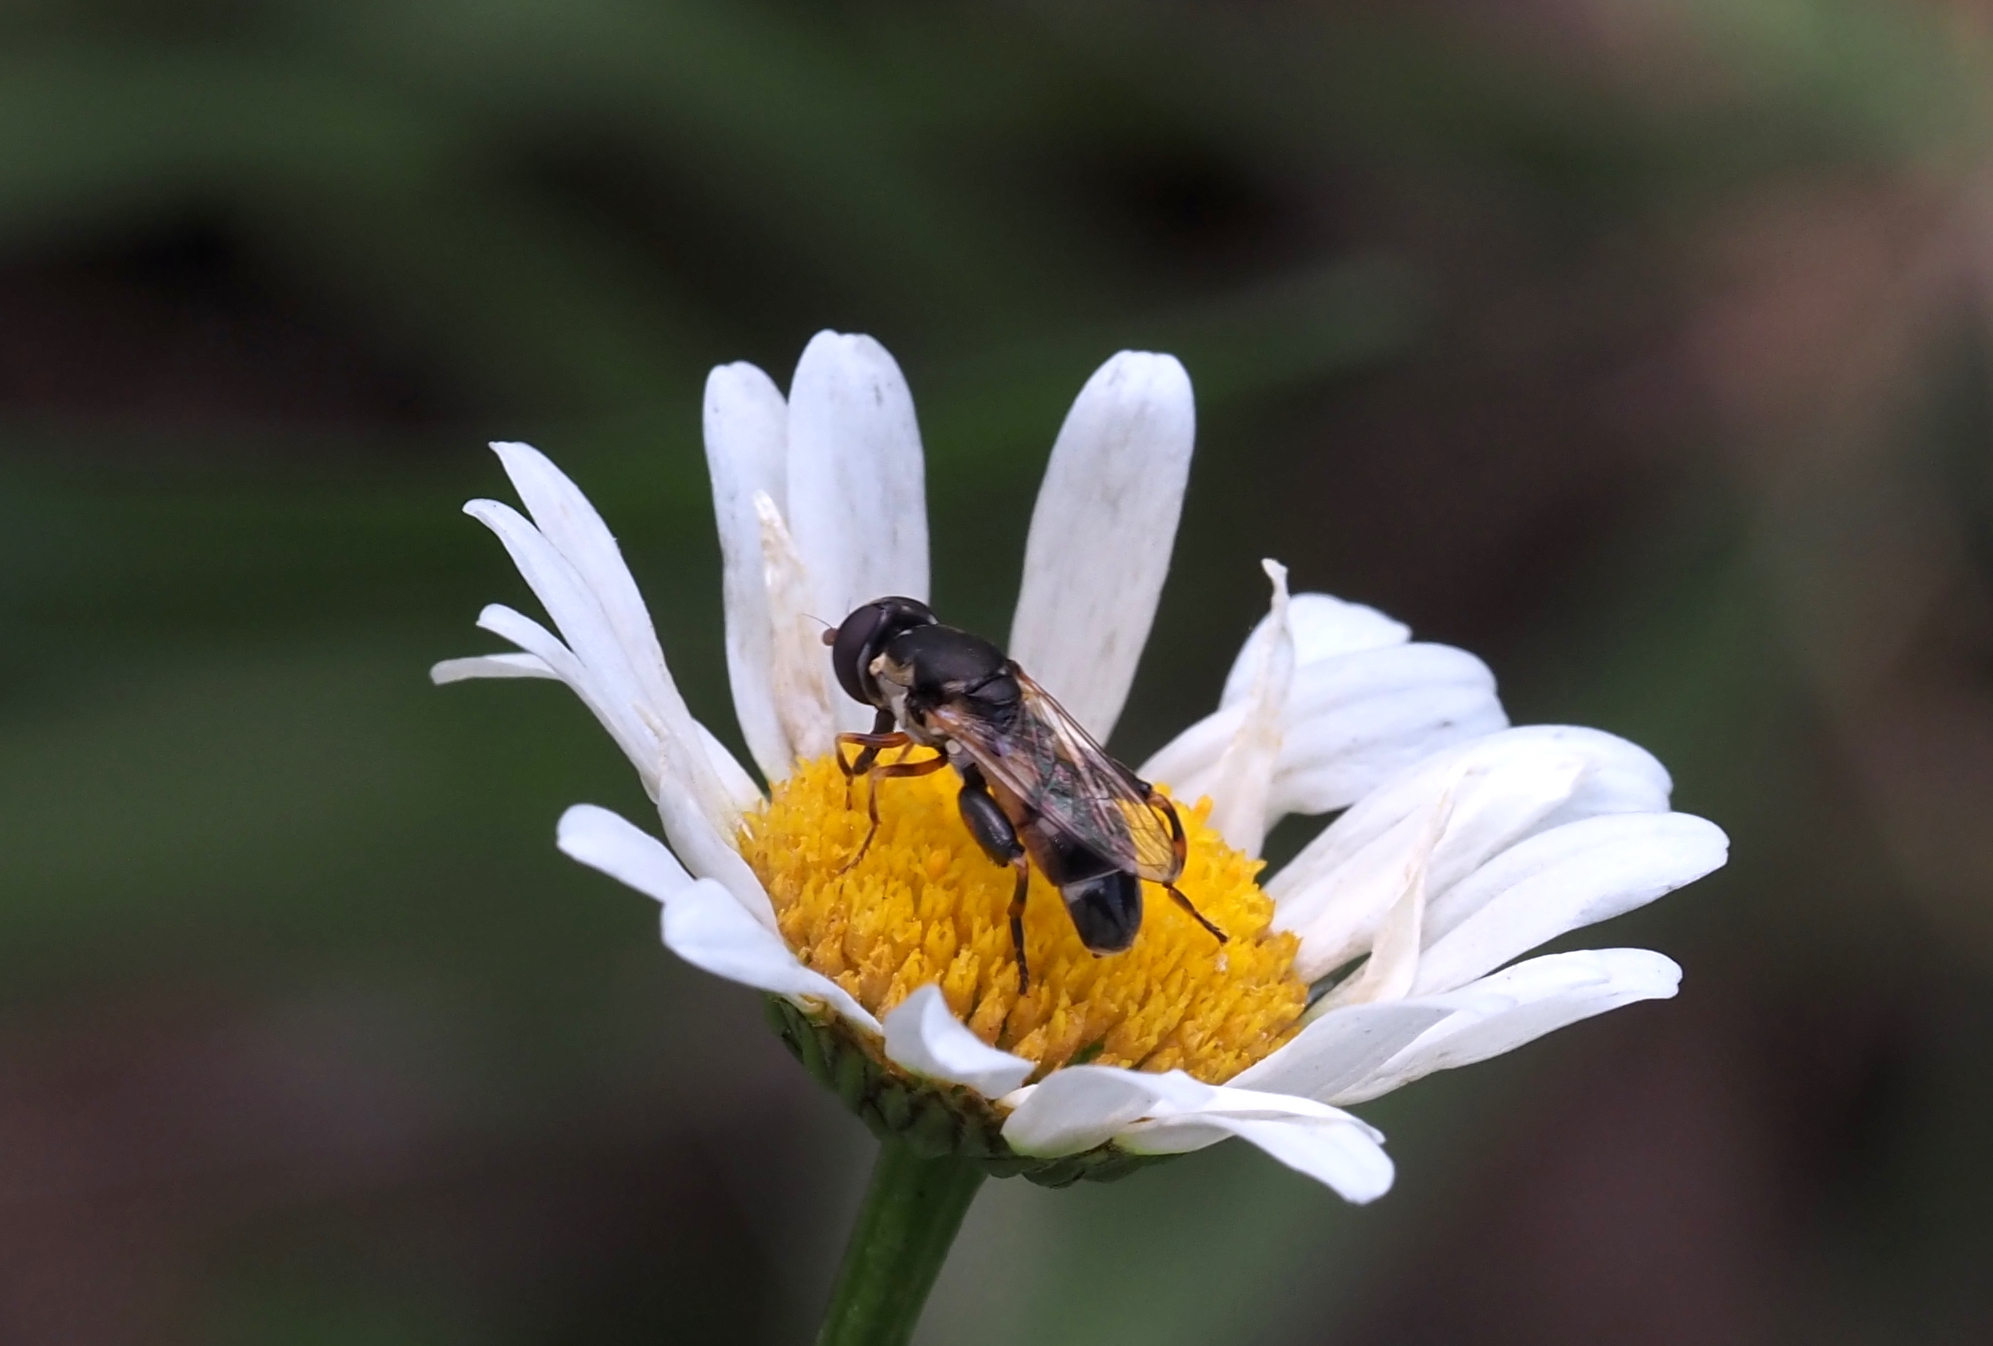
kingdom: Animalia
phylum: Arthropoda
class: Insecta
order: Diptera
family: Syrphidae
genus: Syritta
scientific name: Syritta pipiens
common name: Hover fly
